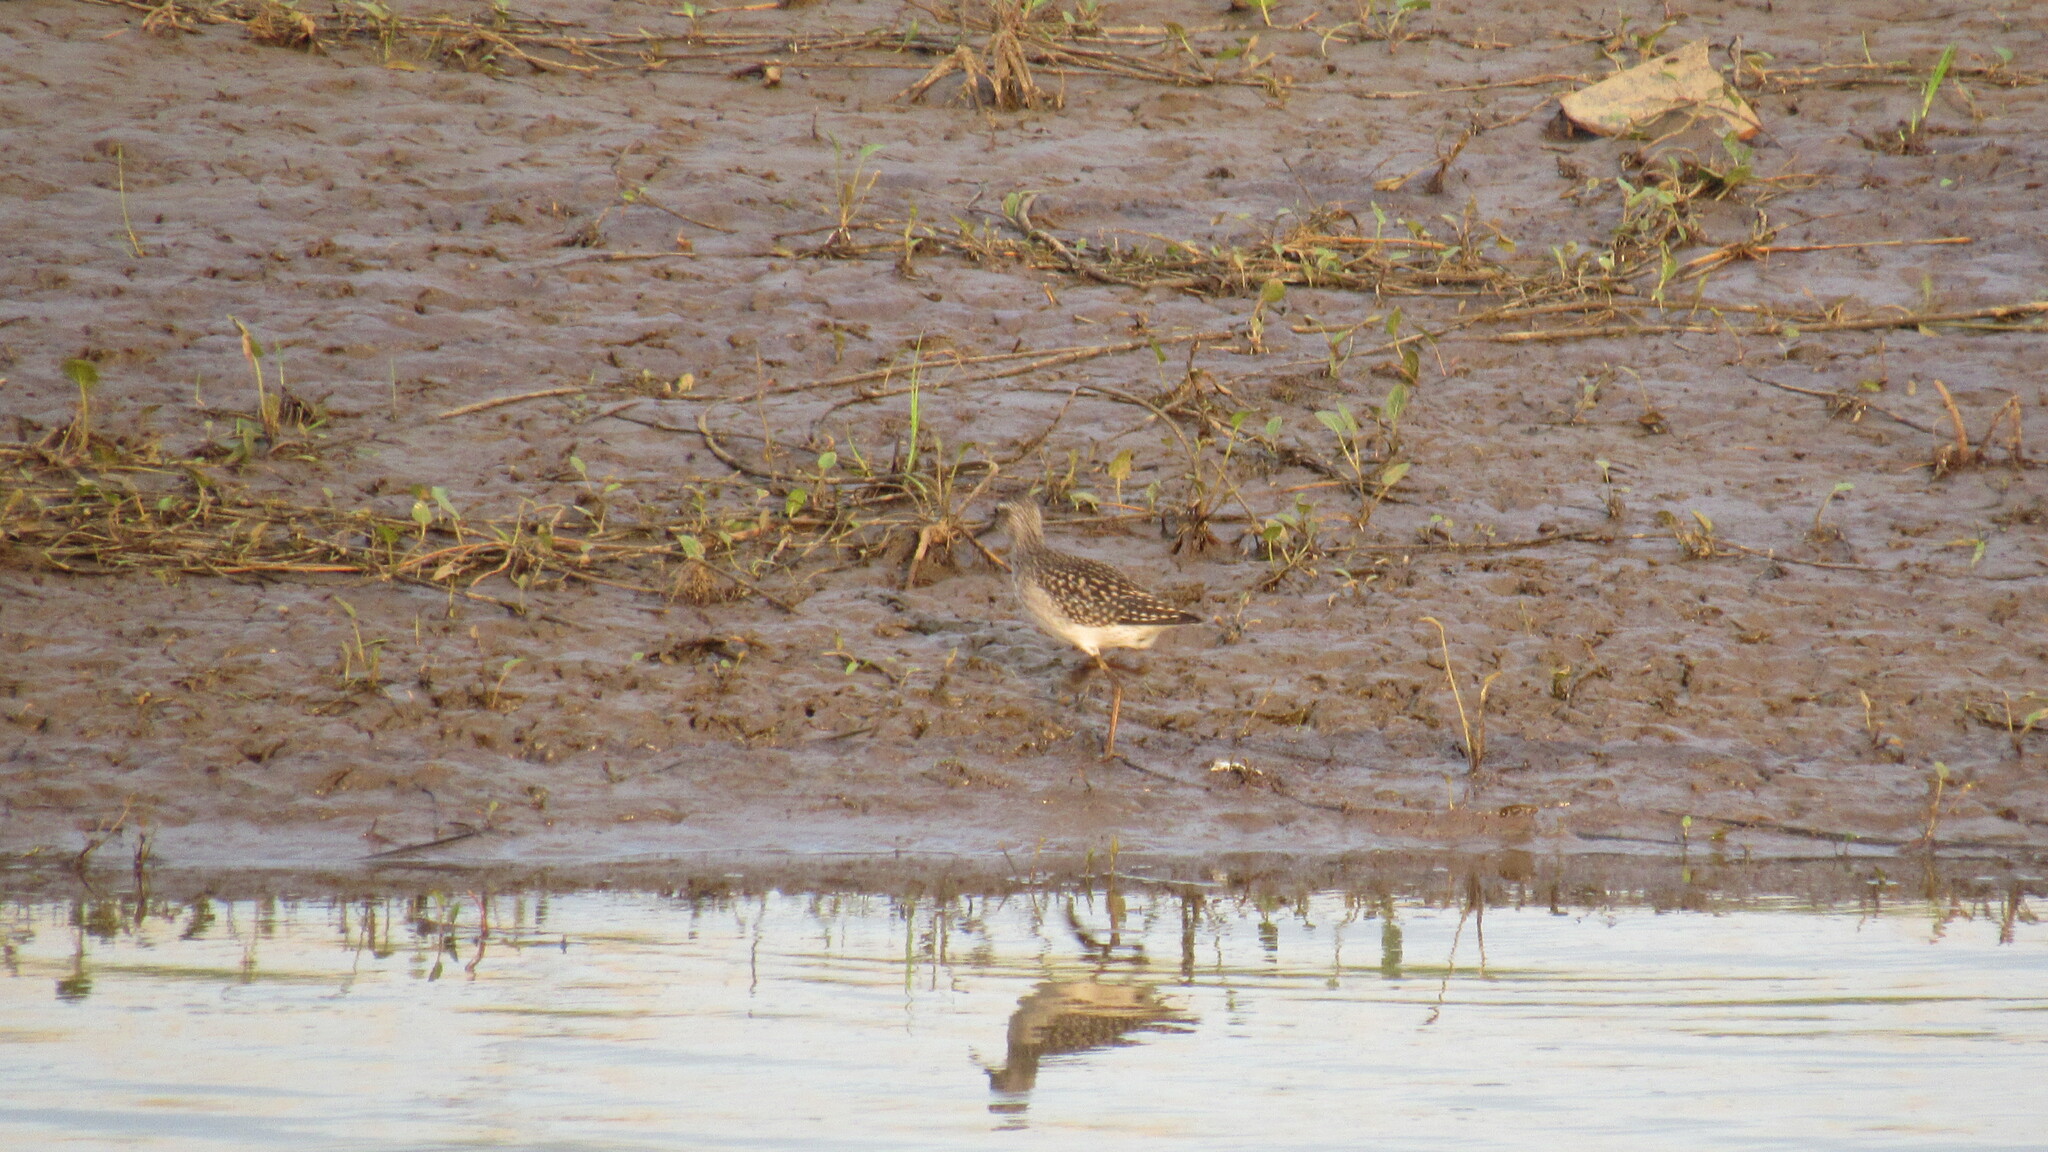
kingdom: Animalia
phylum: Chordata
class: Aves
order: Charadriiformes
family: Scolopacidae
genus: Tringa
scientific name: Tringa glareola
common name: Wood sandpiper
